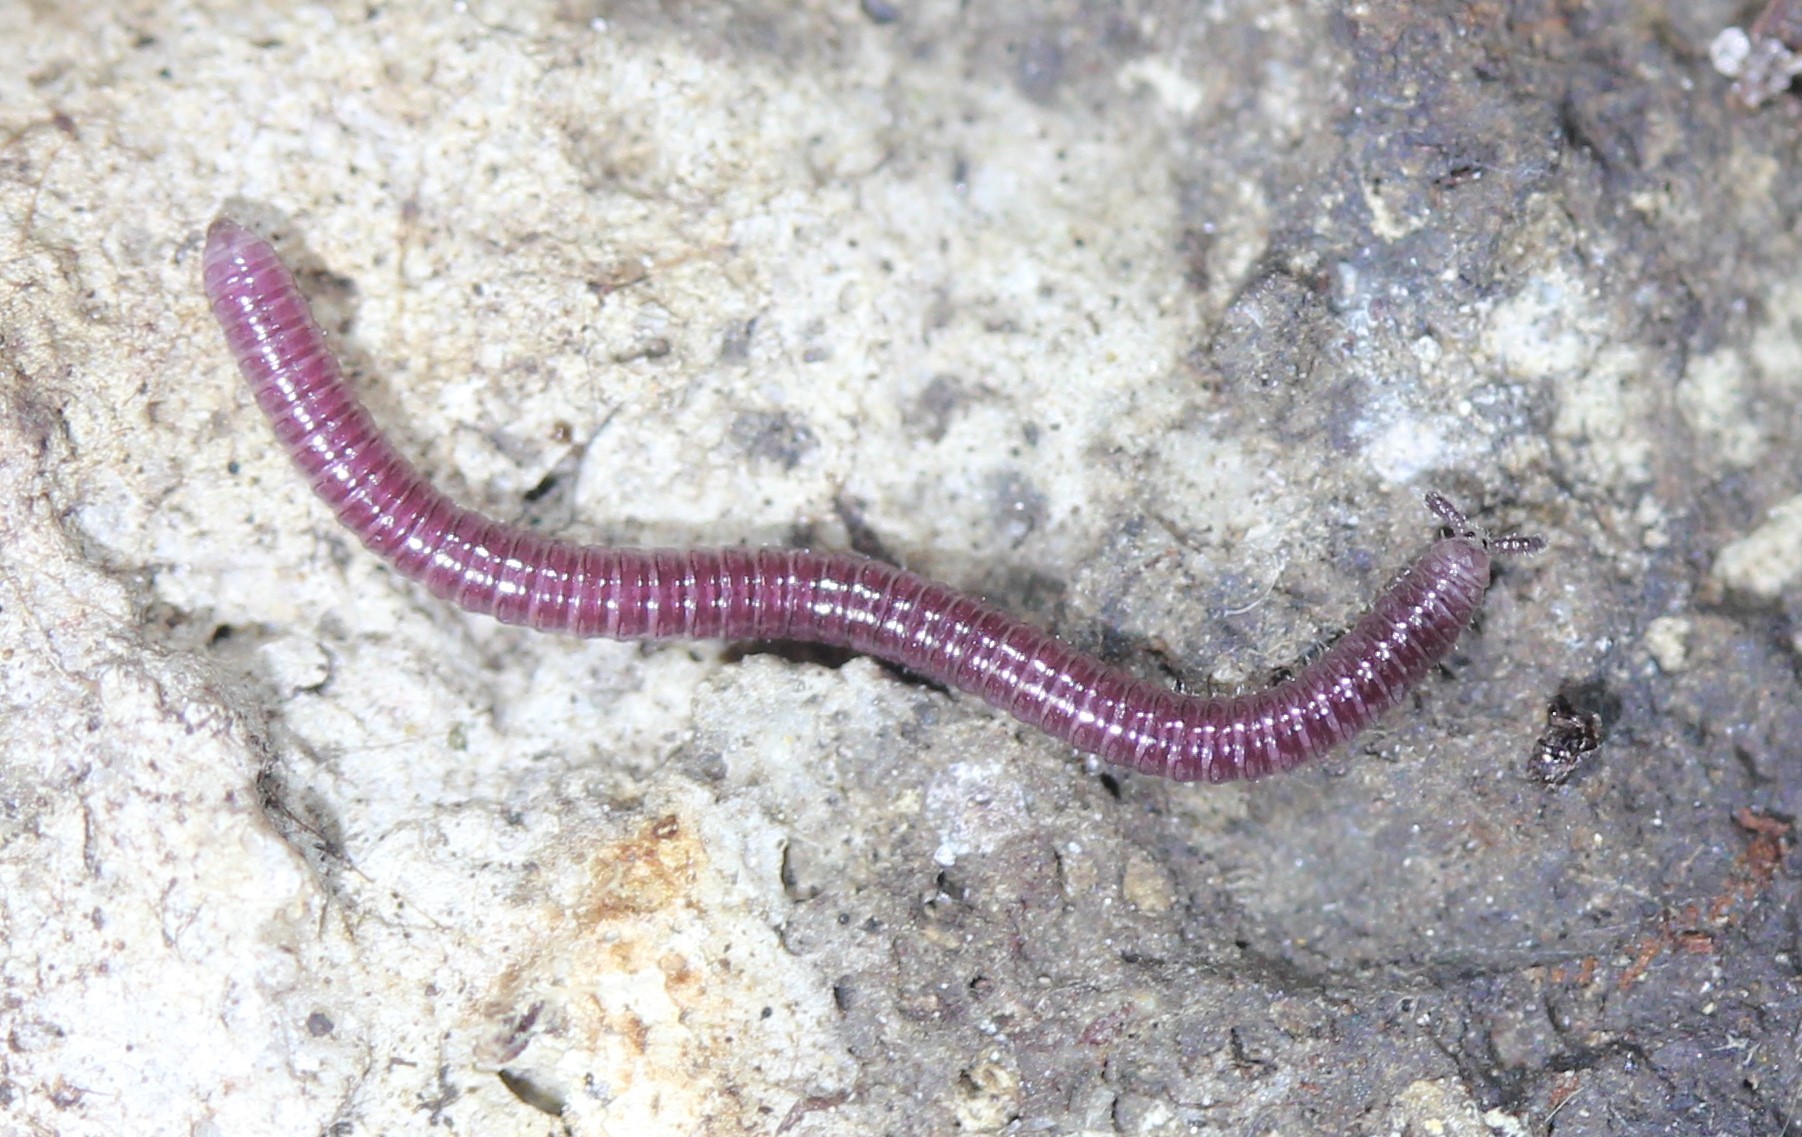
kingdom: Animalia
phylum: Arthropoda
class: Diplopoda
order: Polyzoniida
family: Siphonotidae
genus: Rhinotus
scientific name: Rhinotus purpureus
